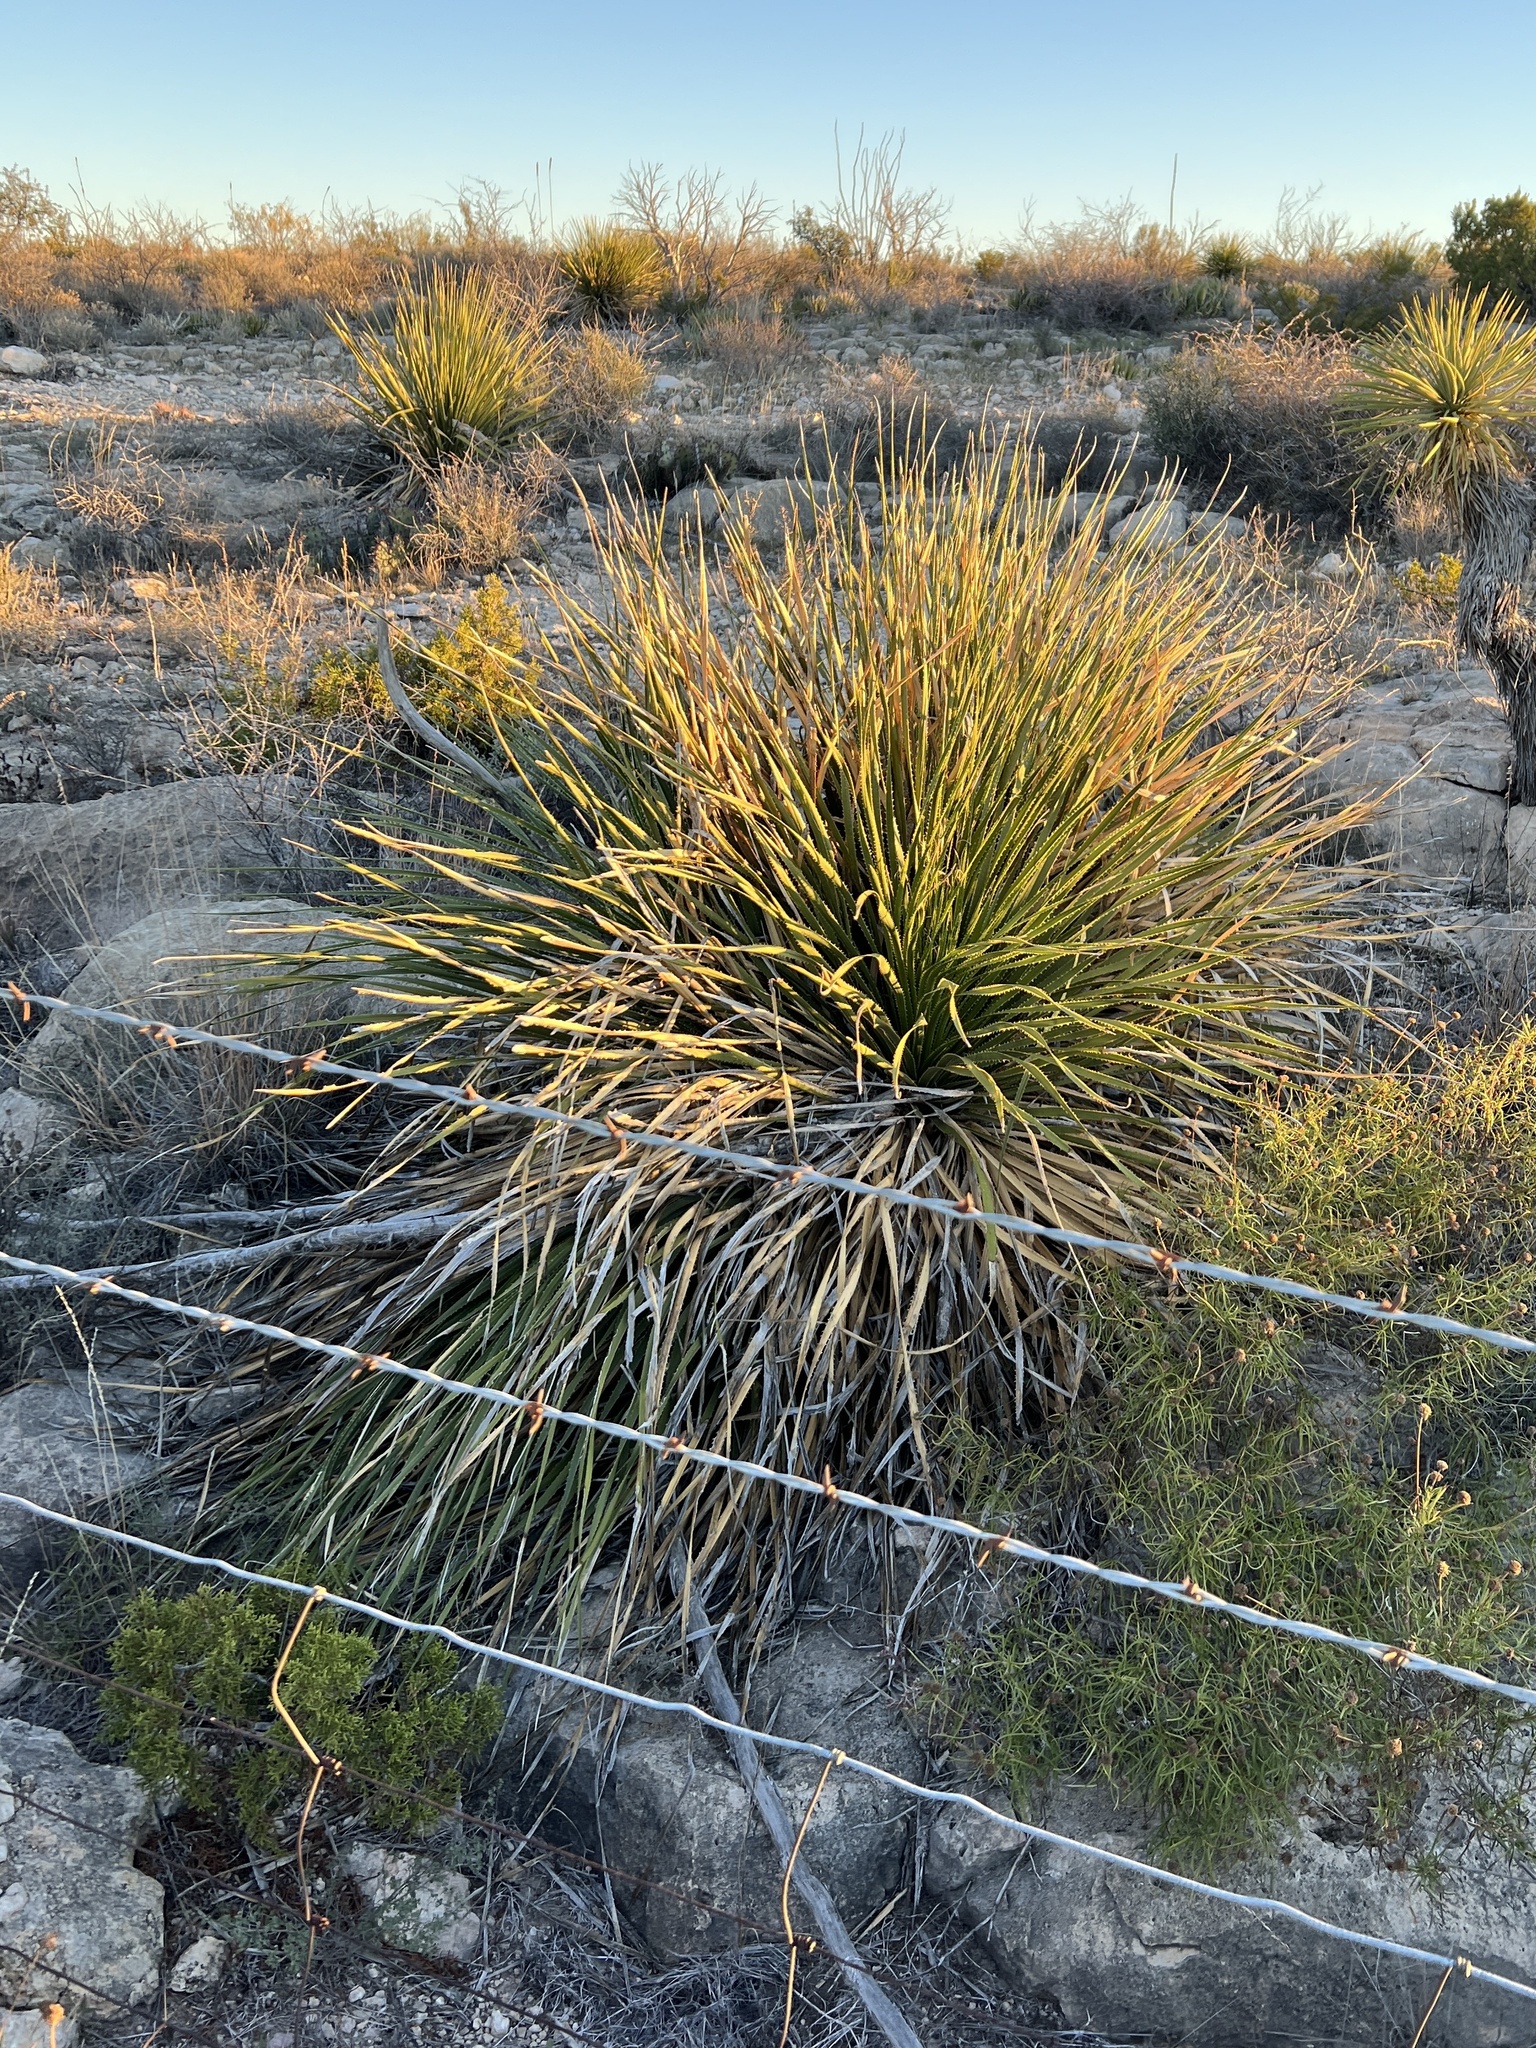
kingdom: Plantae
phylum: Tracheophyta
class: Liliopsida
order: Asparagales
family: Asparagaceae
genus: Dasylirion
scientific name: Dasylirion texanum
